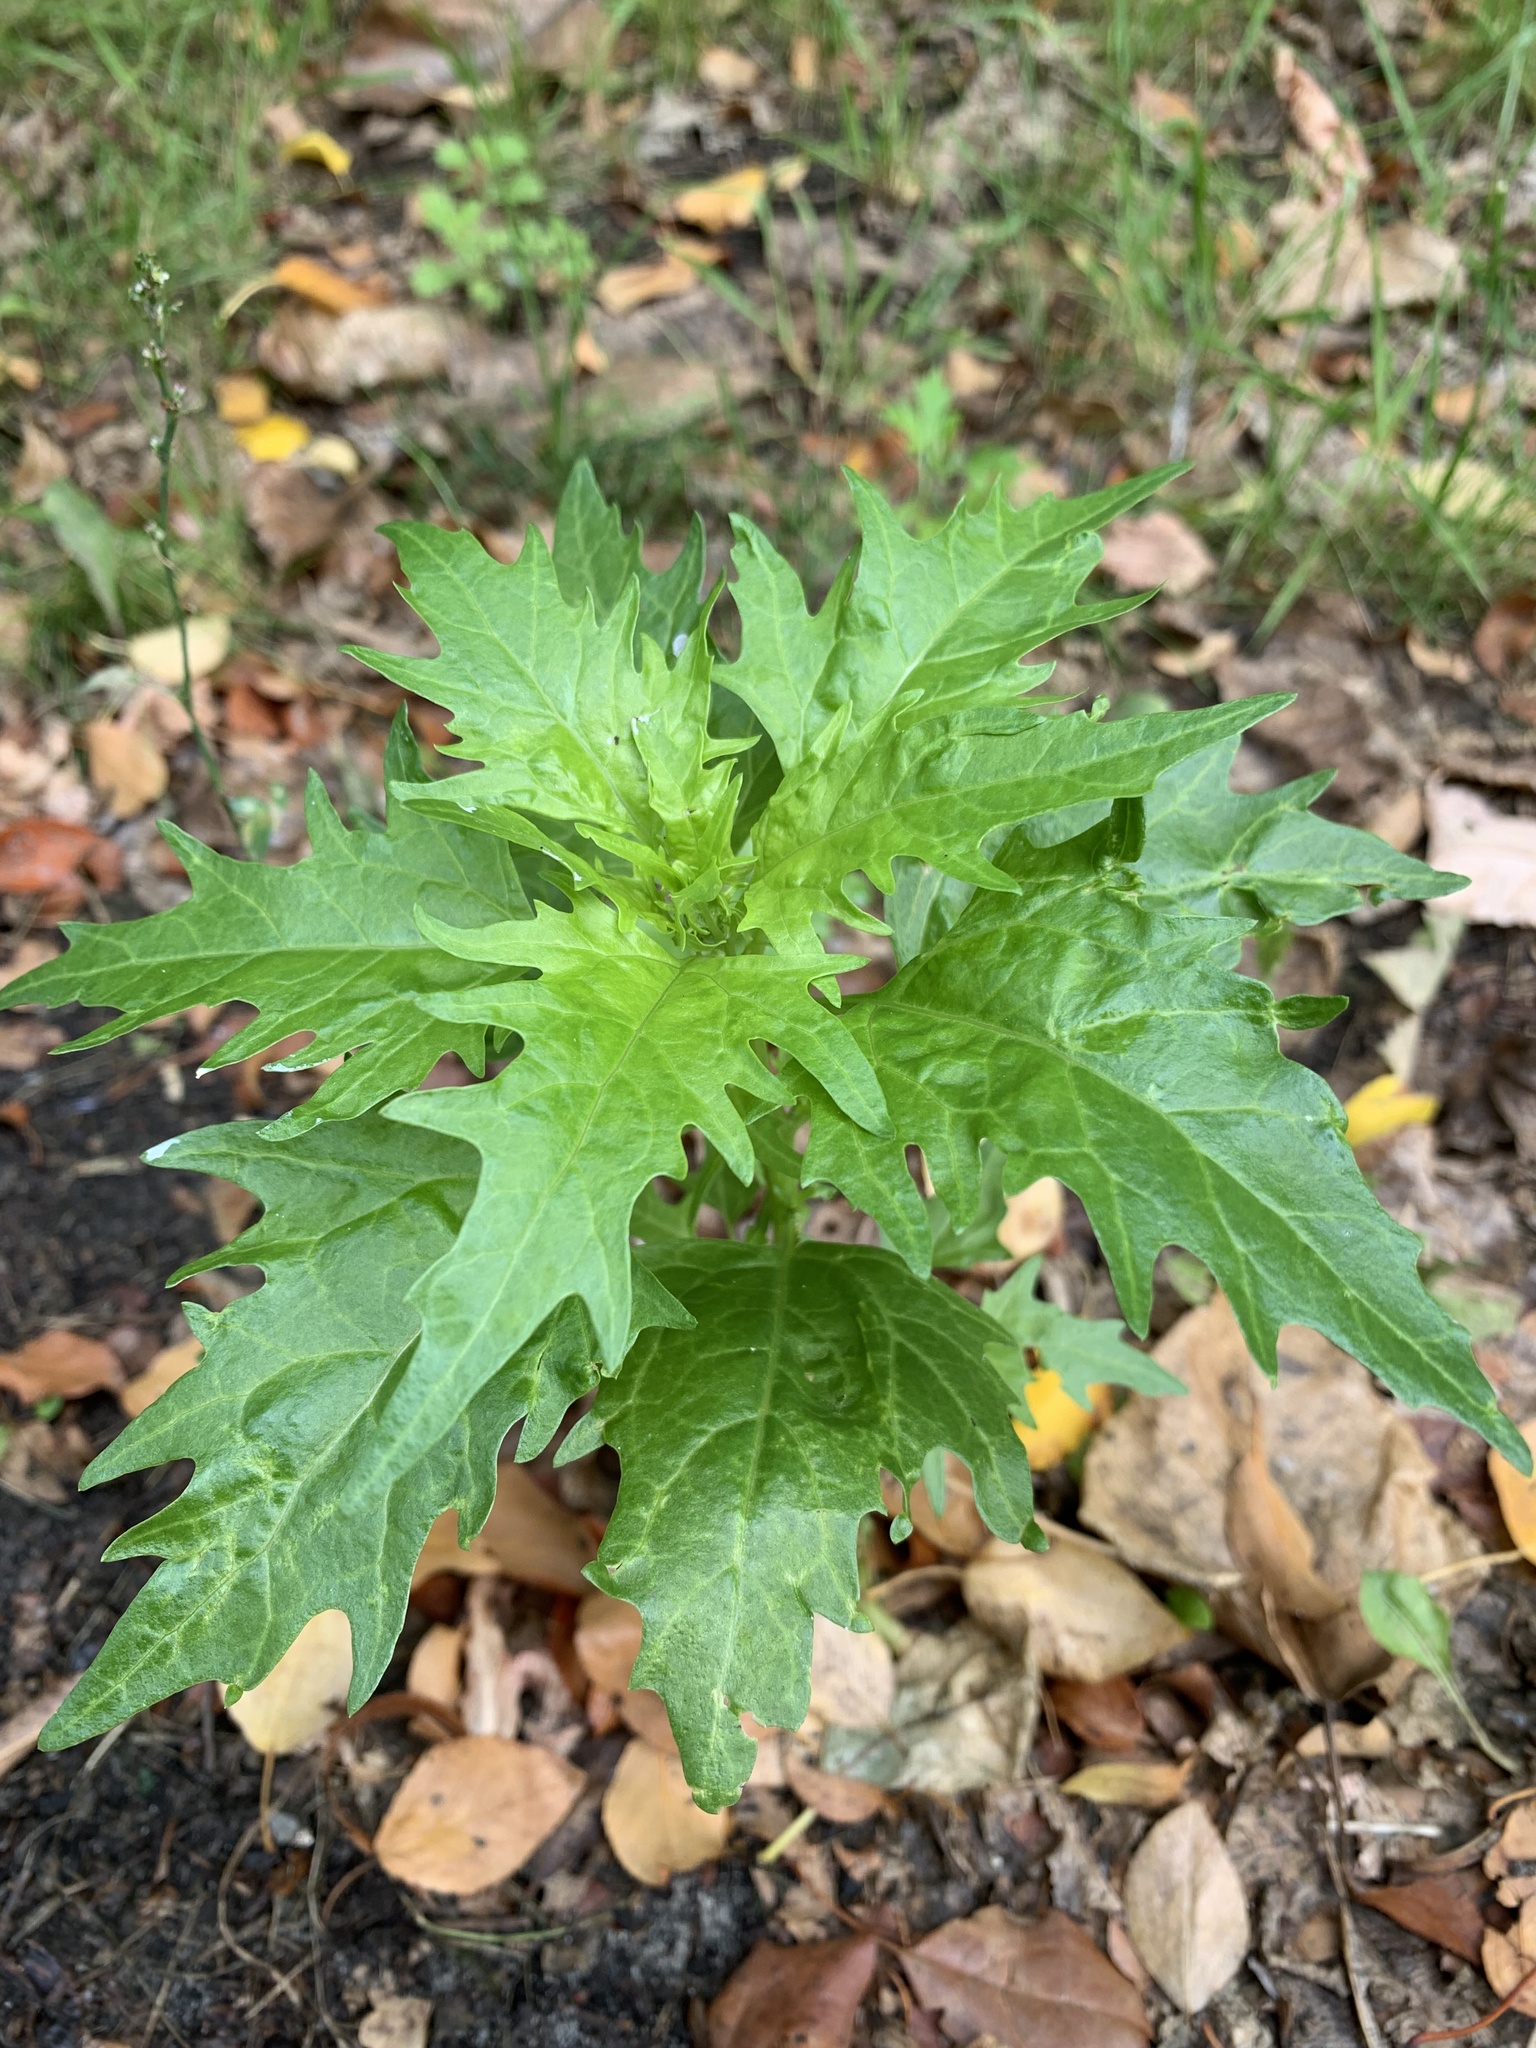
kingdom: Plantae
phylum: Tracheophyta
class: Magnoliopsida
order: Caryophyllales
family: Amaranthaceae
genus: Oxybasis
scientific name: Oxybasis rubra
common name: Red goosefoot
